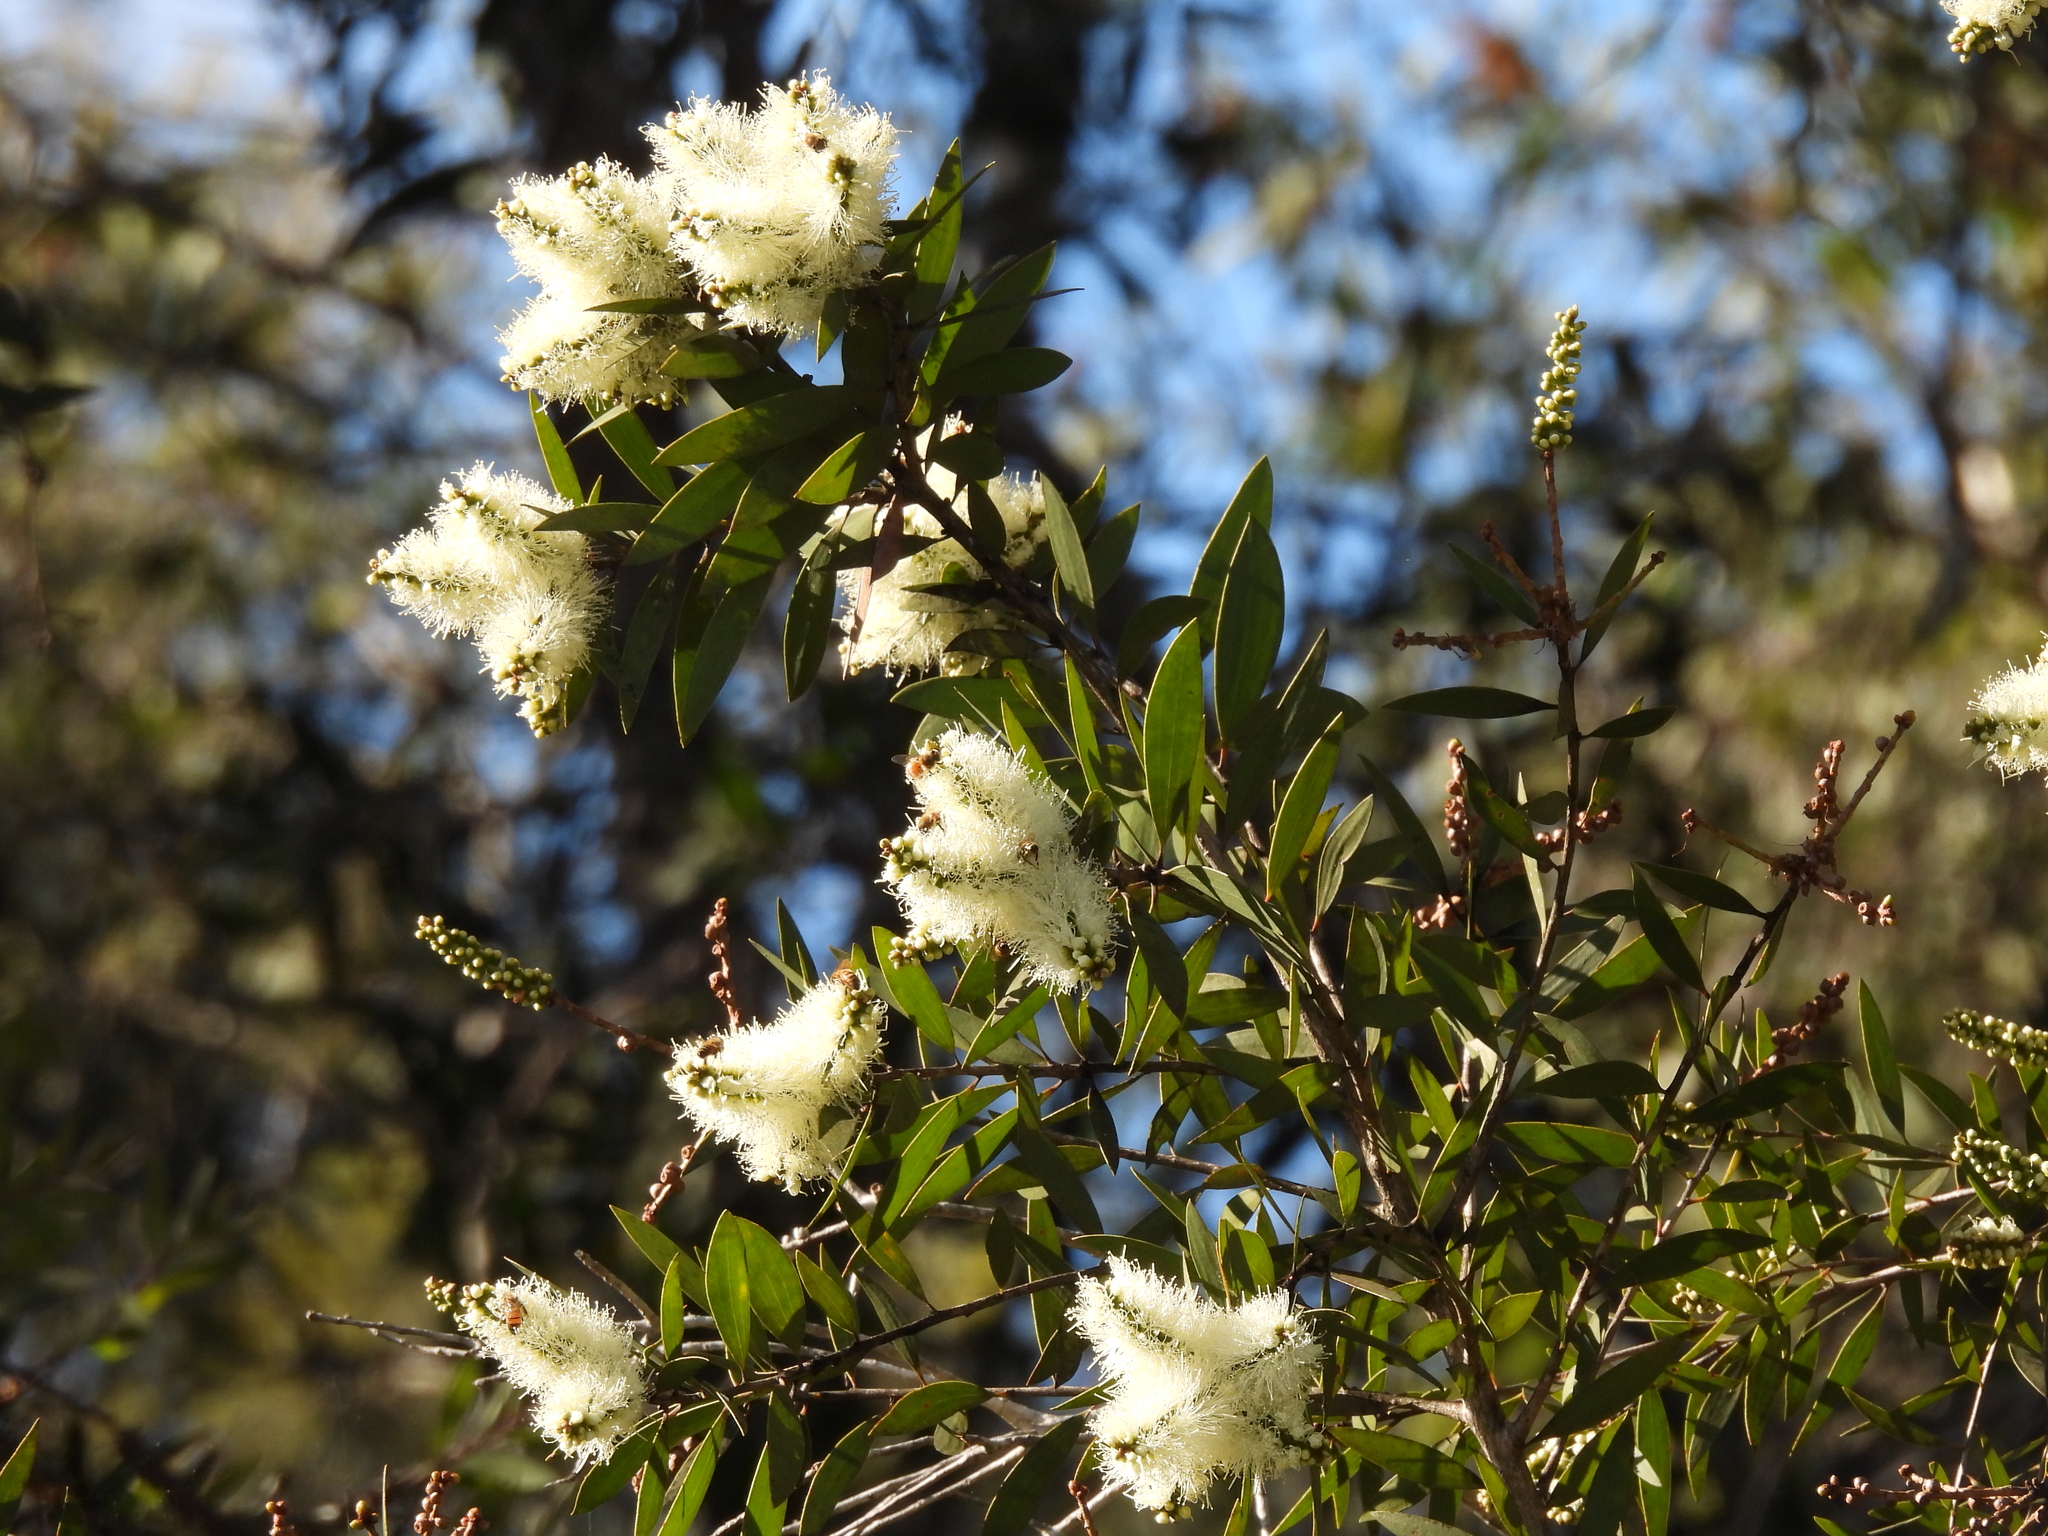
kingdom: Plantae
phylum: Tracheophyta
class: Magnoliopsida
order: Myrtales
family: Myrtaceae
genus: Melaleuca
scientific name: Melaleuca quinquenervia
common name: Punktree
